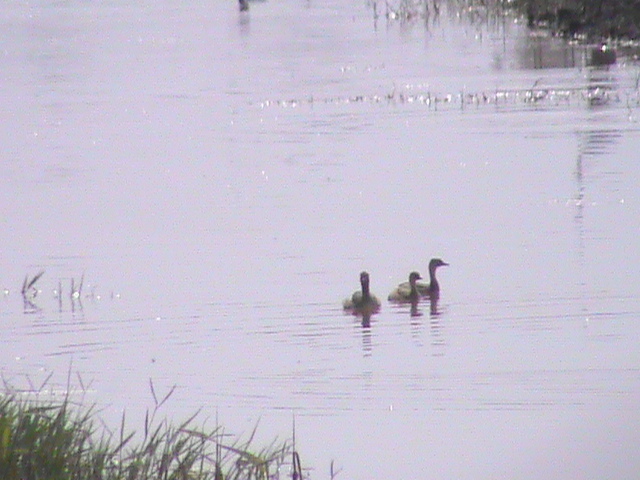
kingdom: Animalia
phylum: Chordata
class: Aves
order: Podicipediformes
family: Podicipedidae
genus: Tachybaptus
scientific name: Tachybaptus ruficollis
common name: Little grebe
